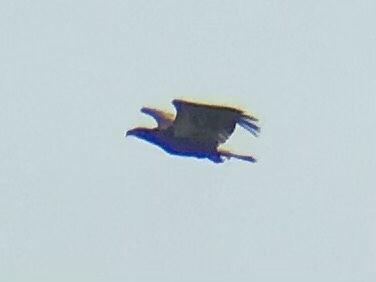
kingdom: Animalia
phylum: Chordata
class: Aves
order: Accipitriformes
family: Accipitridae
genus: Haliaeetus
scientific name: Haliaeetus leucocephalus
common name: Bald eagle
